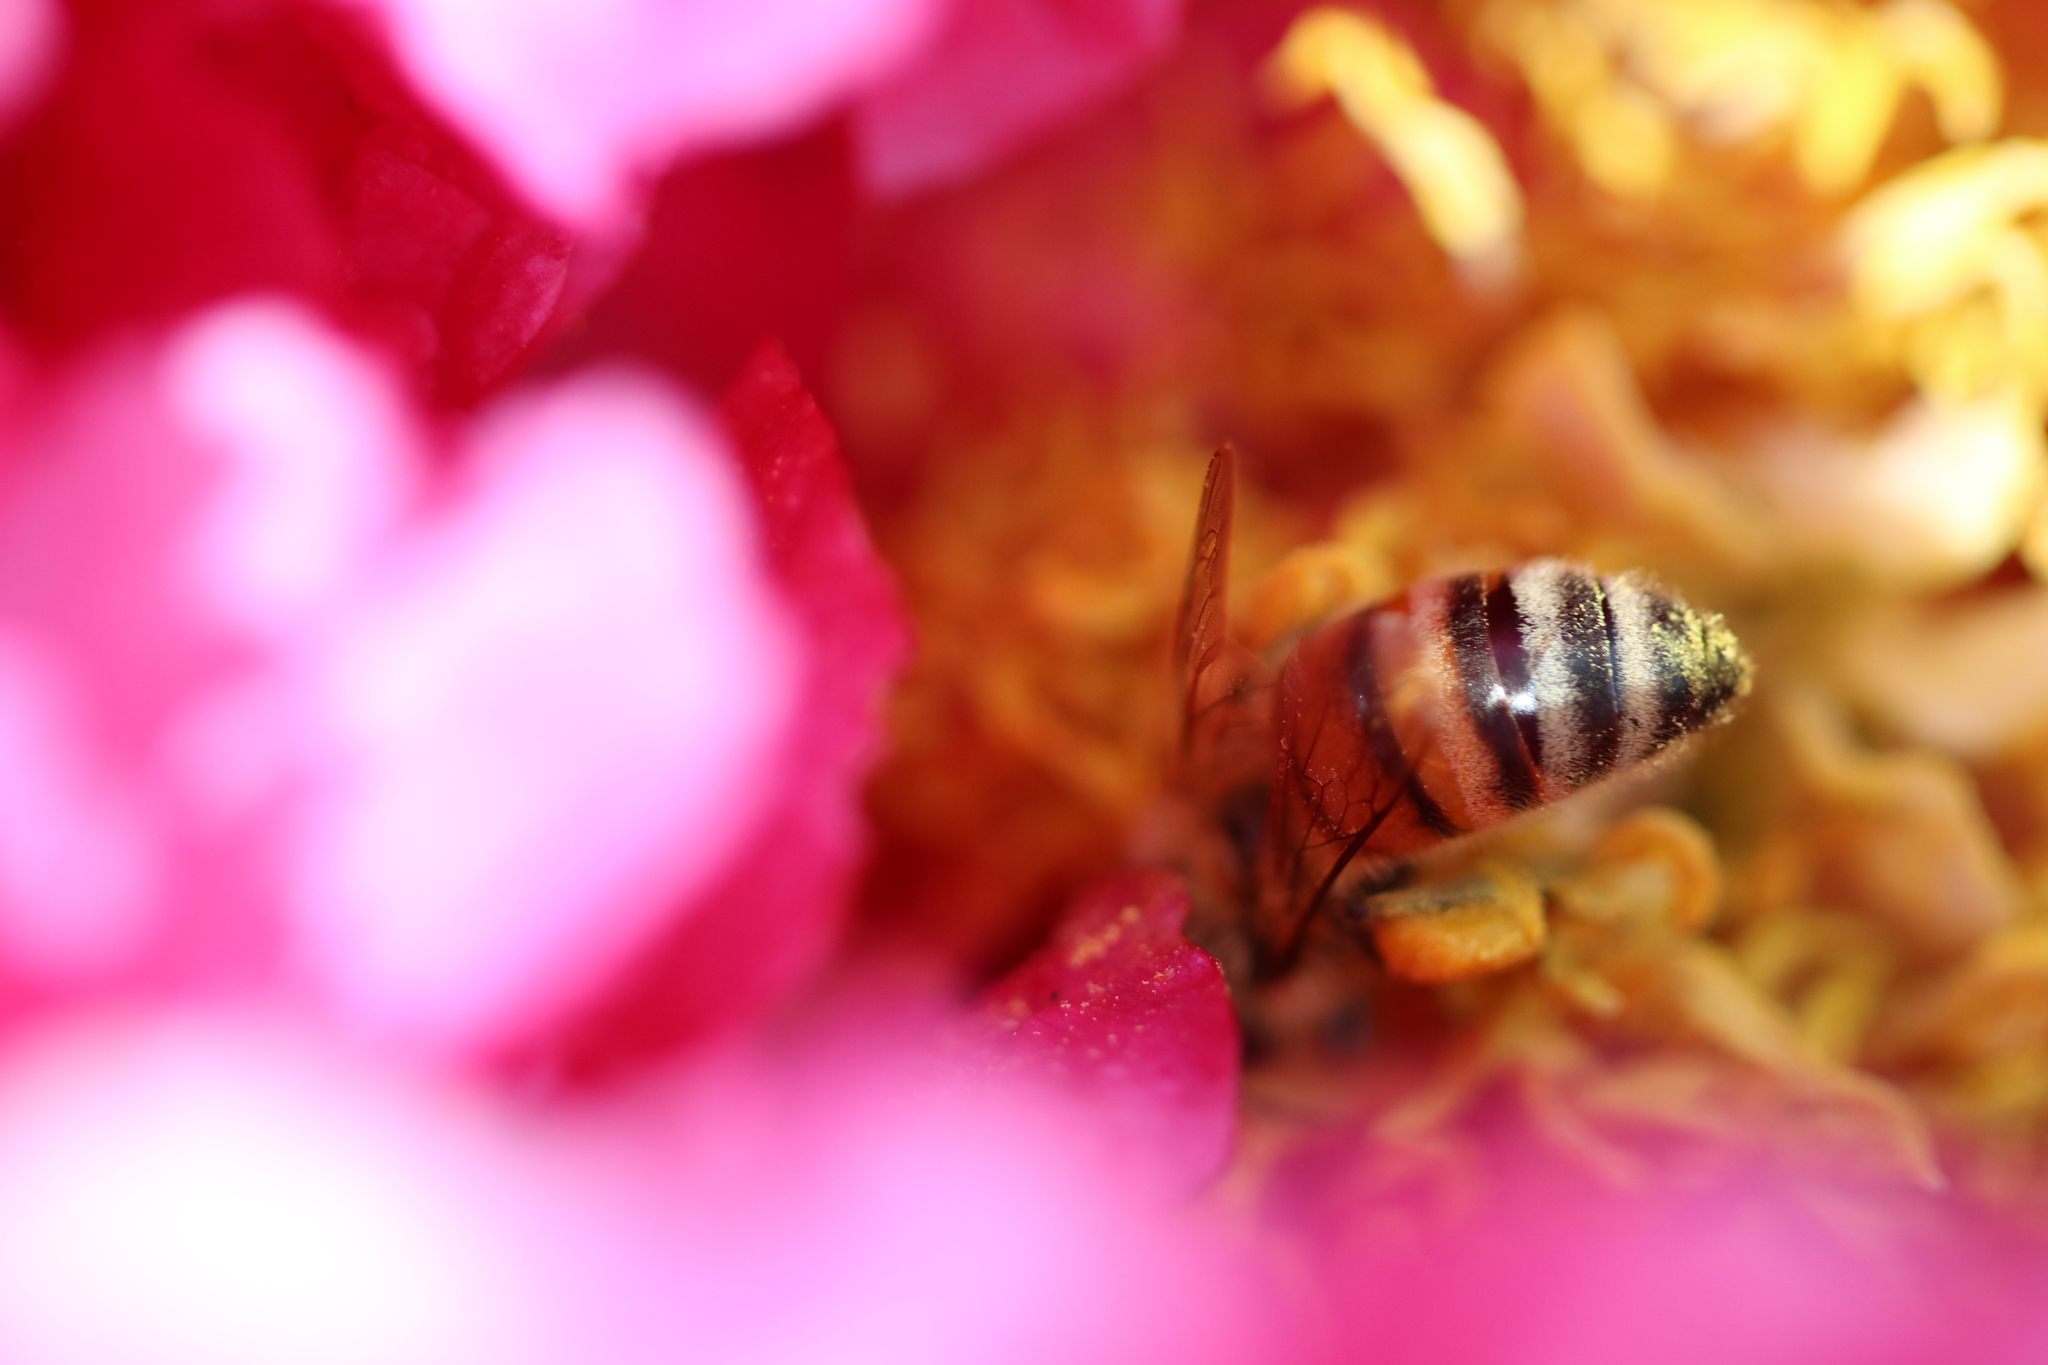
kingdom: Animalia
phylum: Arthropoda
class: Insecta
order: Hymenoptera
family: Apidae
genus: Apis
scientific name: Apis mellifera
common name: Honey bee
